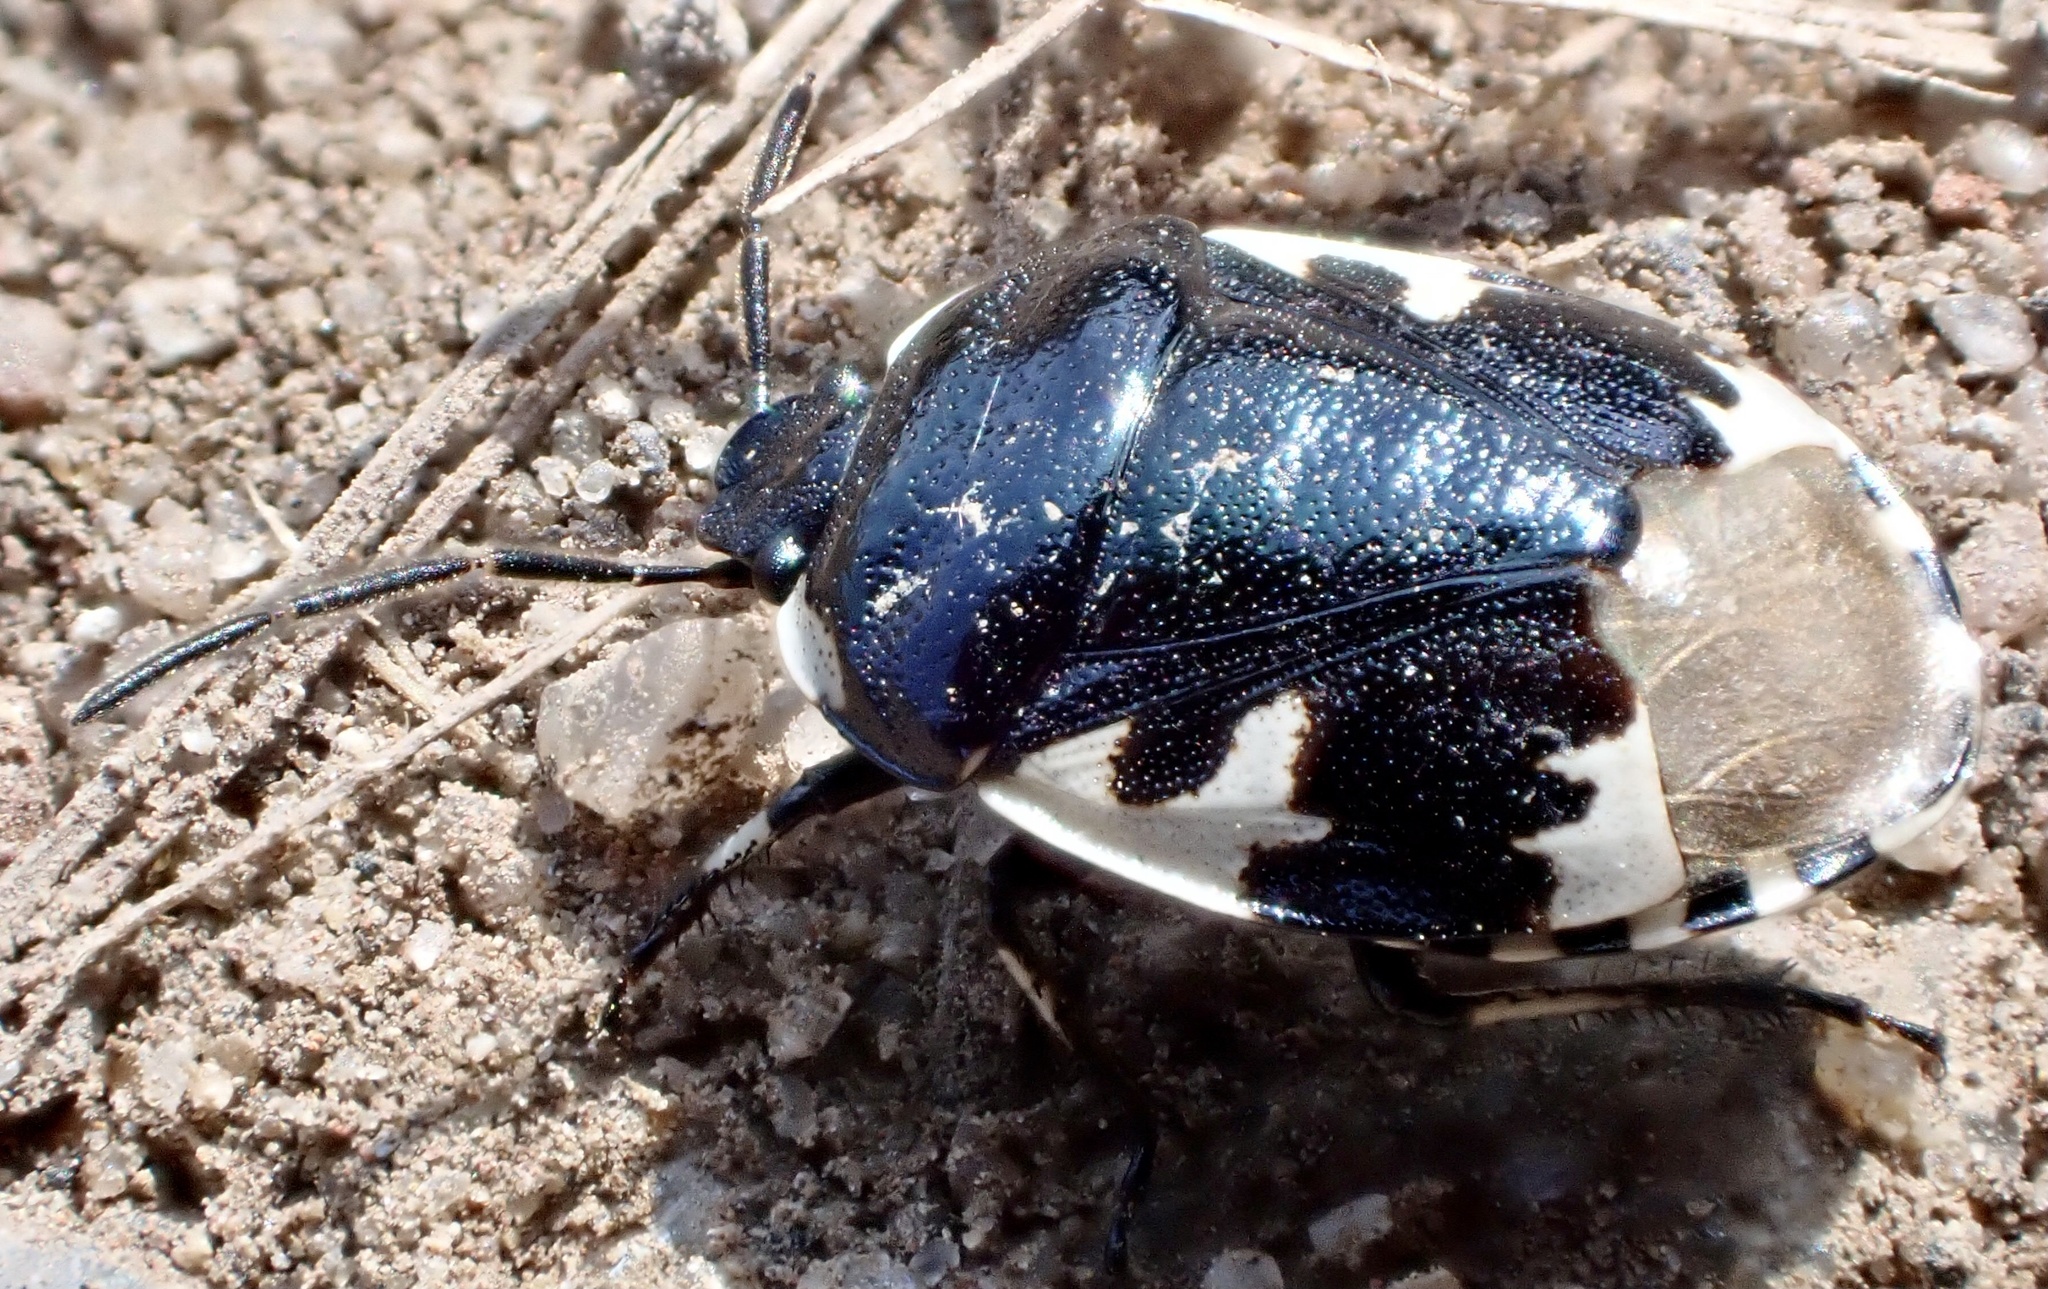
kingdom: Animalia
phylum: Arthropoda
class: Insecta
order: Hemiptera
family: Cydnidae
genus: Tritomegas
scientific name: Tritomegas bicolor
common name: Pied shieldbug
